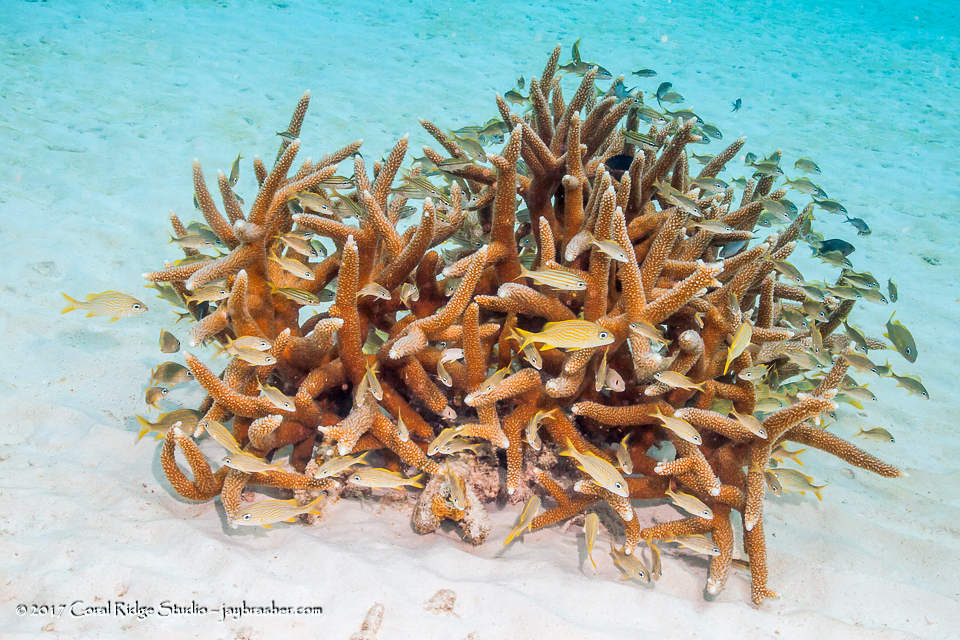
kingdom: Animalia
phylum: Cnidaria
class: Anthozoa
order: Scleractinia
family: Acroporidae
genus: Acropora
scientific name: Acropora cervicornis
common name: Staghorn coral
